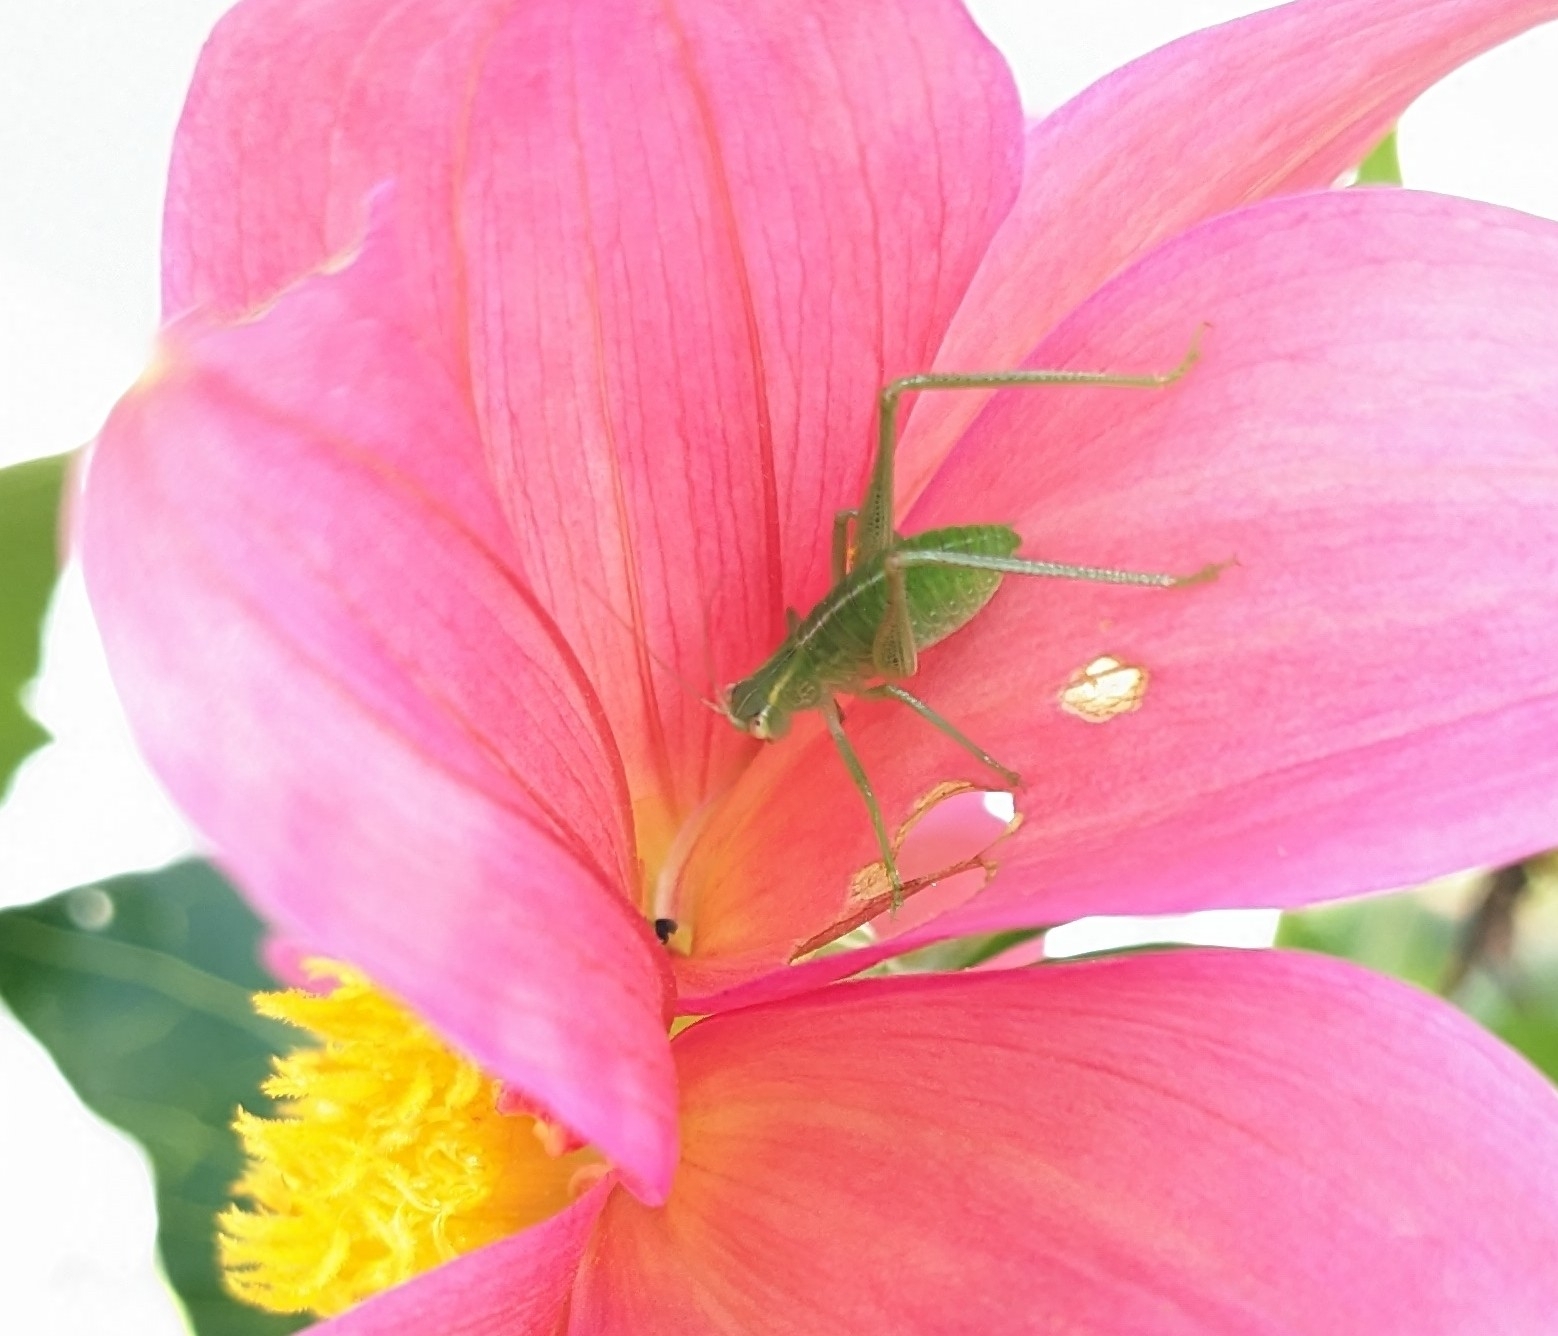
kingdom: Animalia
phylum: Arthropoda
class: Insecta
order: Orthoptera
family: Tettigoniidae
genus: Caedicia
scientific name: Caedicia simplex
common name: Common garden katydid
